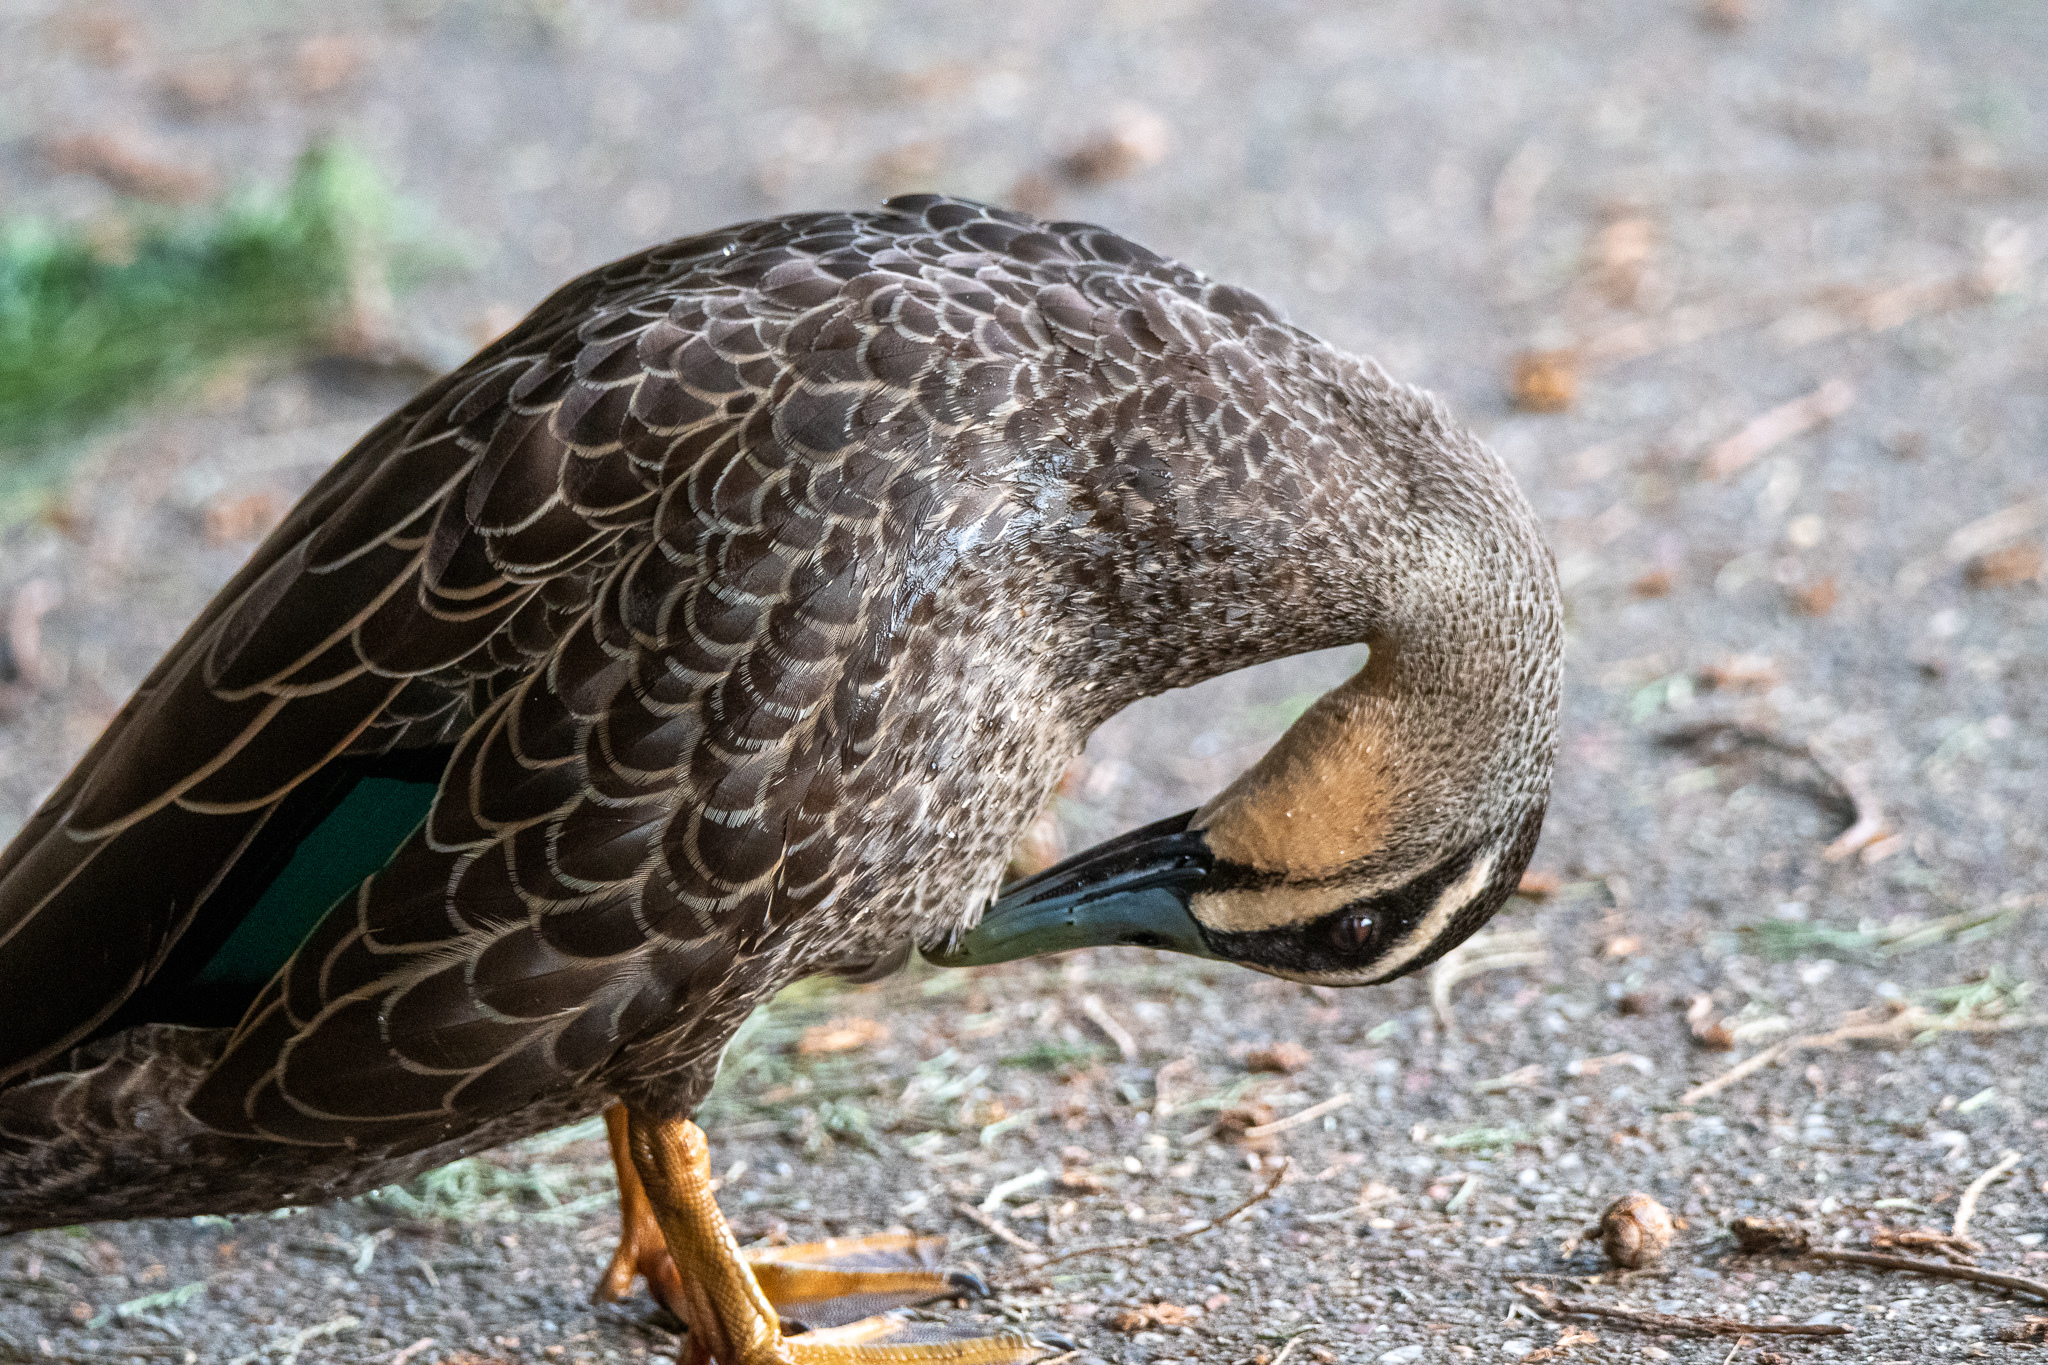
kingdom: Animalia
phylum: Chordata
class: Aves
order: Anseriformes
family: Anatidae
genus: Anas
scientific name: Anas
